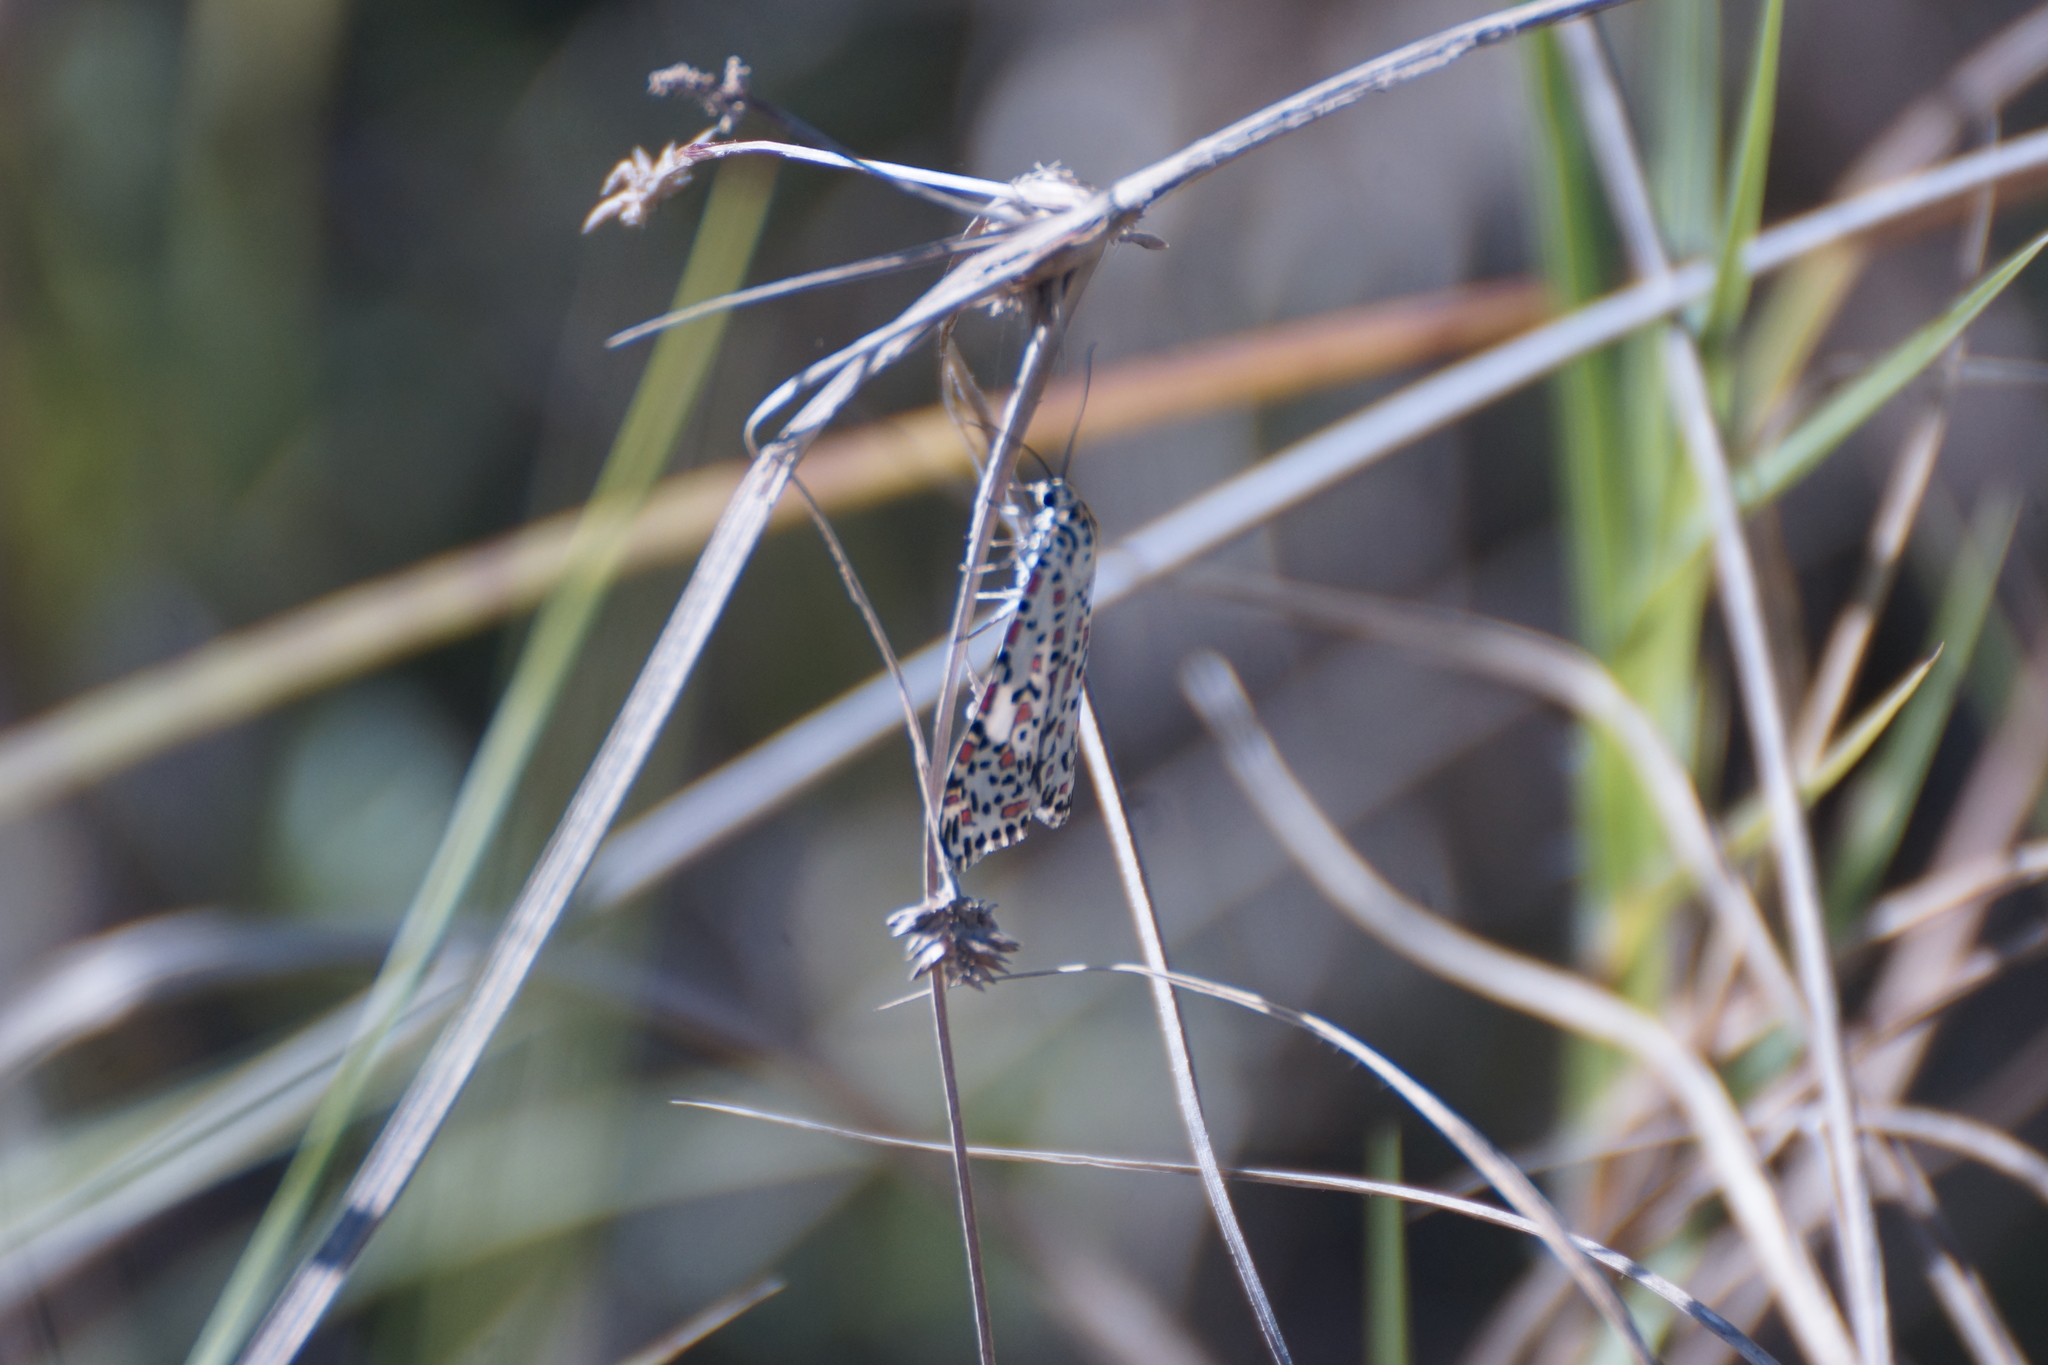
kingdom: Animalia
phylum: Arthropoda
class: Insecta
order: Lepidoptera
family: Erebidae
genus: Utetheisa
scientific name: Utetheisa lotrix
